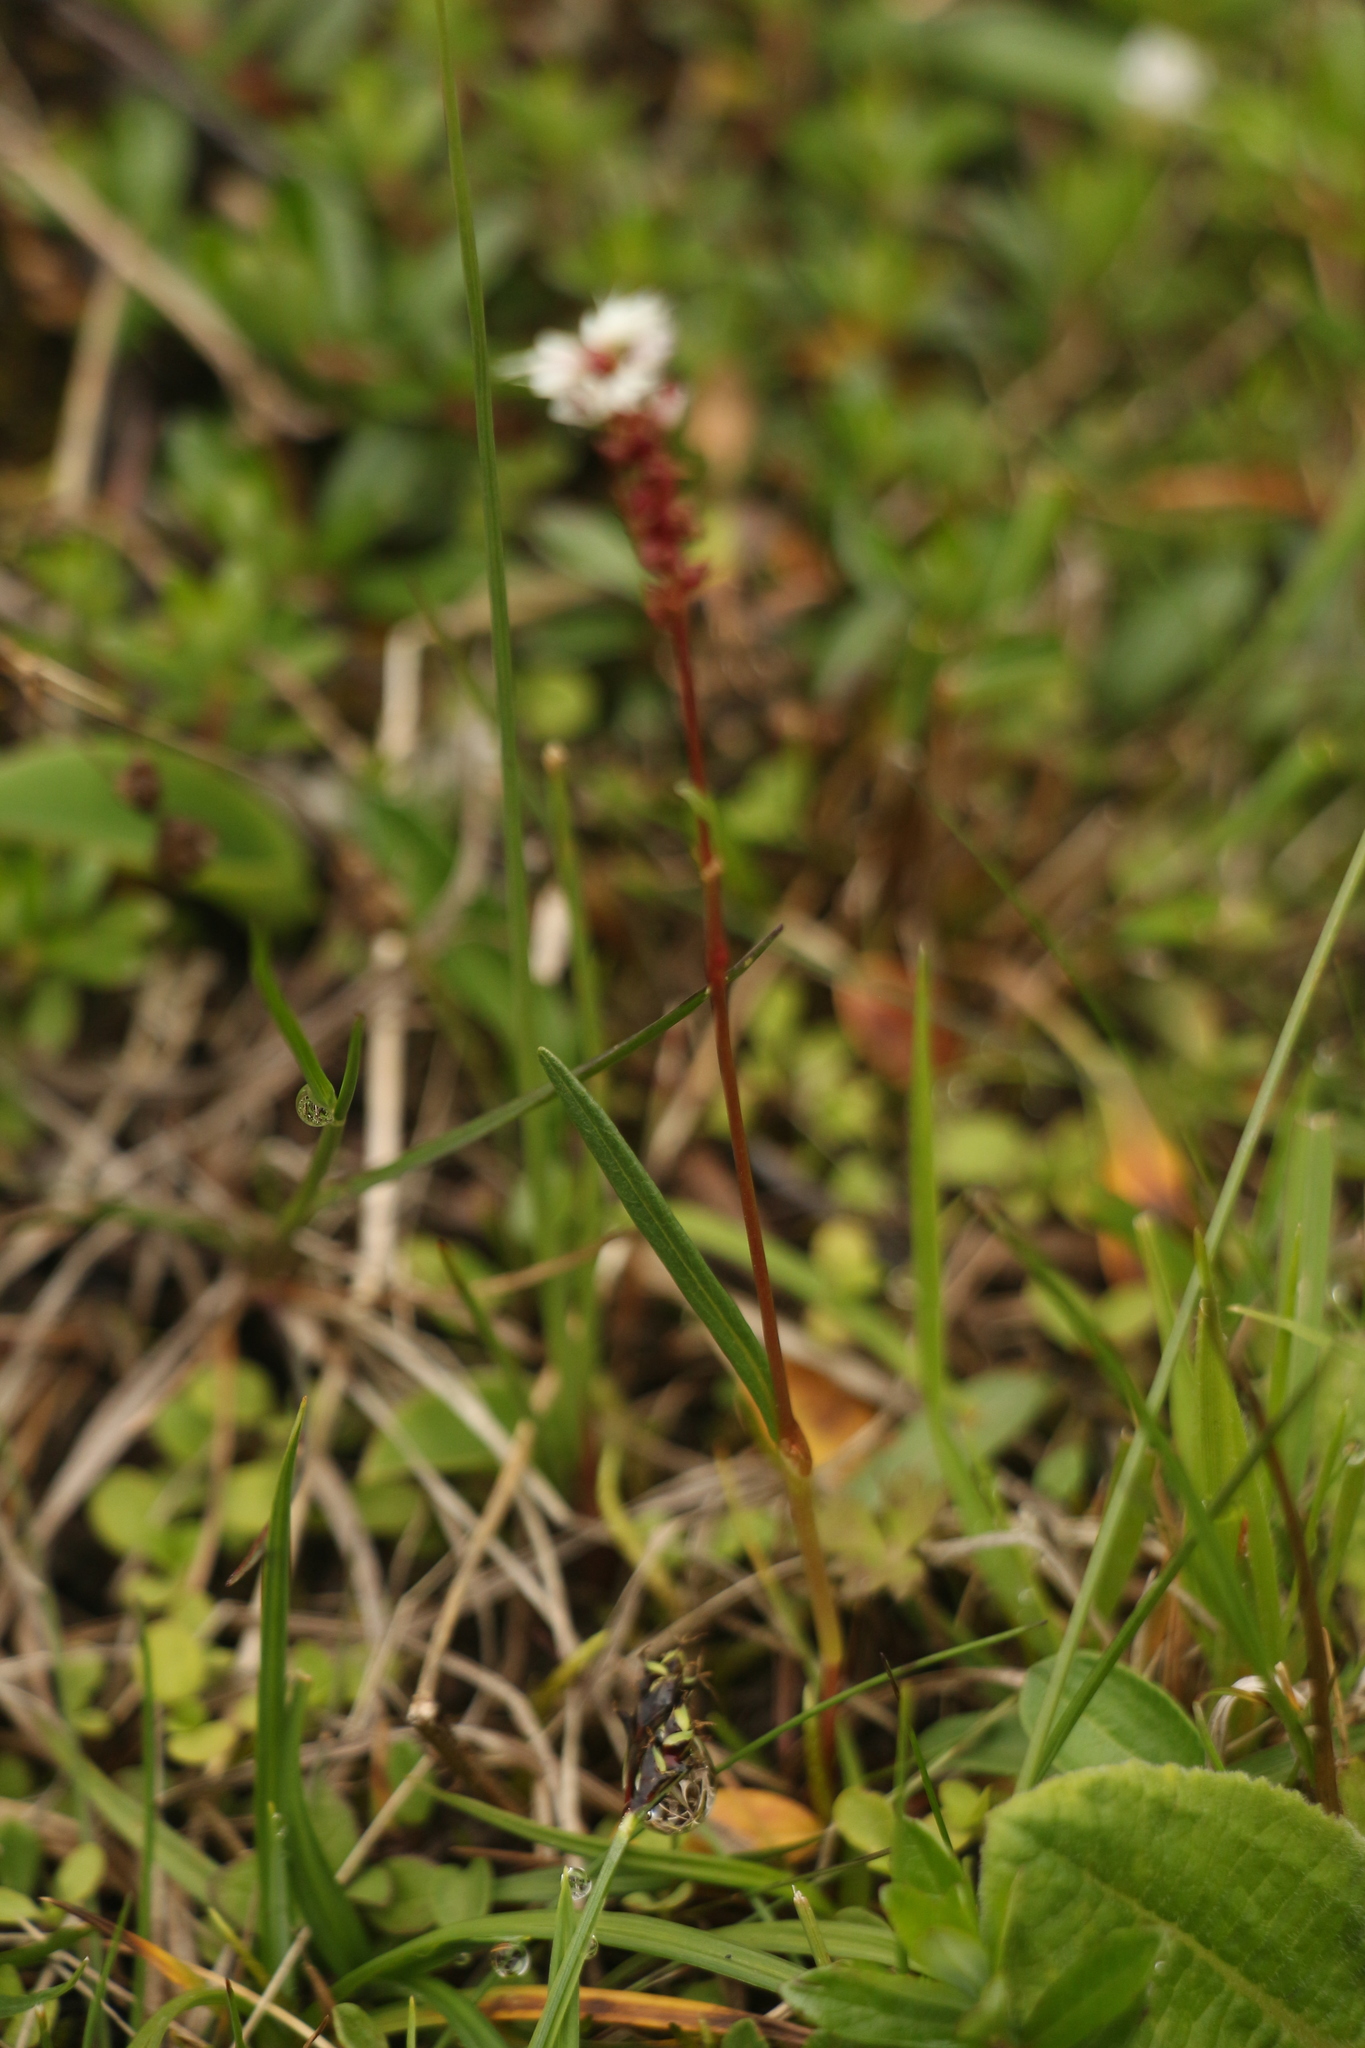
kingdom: Plantae
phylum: Tracheophyta
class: Magnoliopsida
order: Caryophyllales
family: Polygonaceae
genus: Bistorta
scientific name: Bistorta vivipara
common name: Alpine bistort
